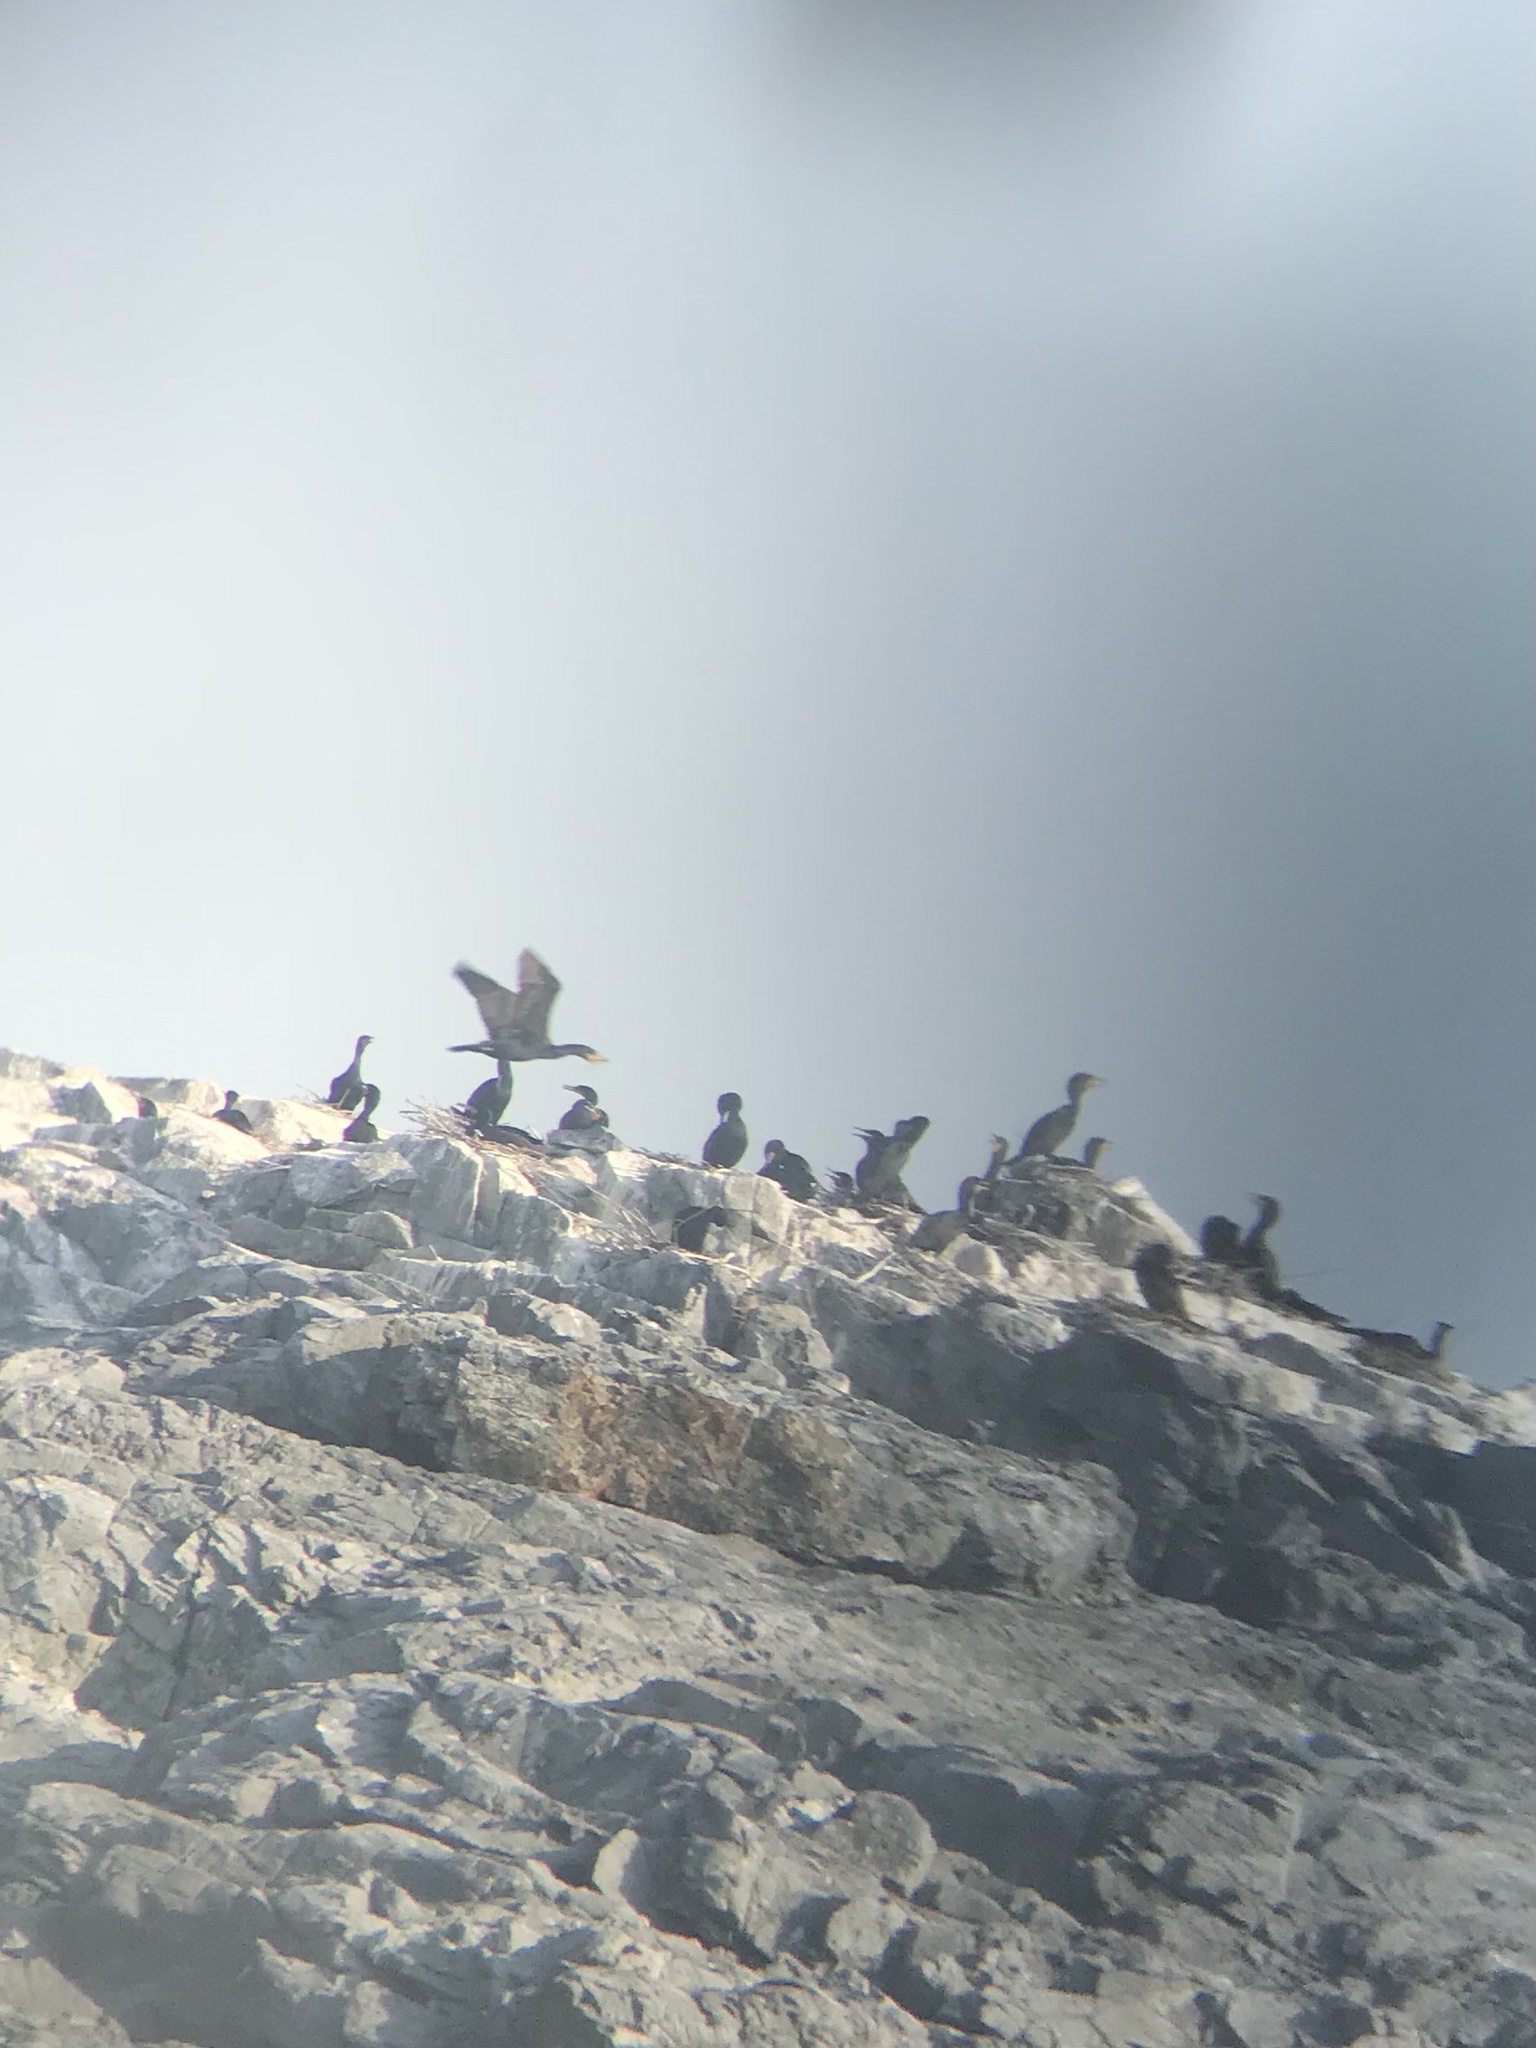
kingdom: Animalia
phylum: Chordata
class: Aves
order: Suliformes
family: Phalacrocoracidae
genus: Phalacrocorax
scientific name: Phalacrocorax auritus
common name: Double-crested cormorant
